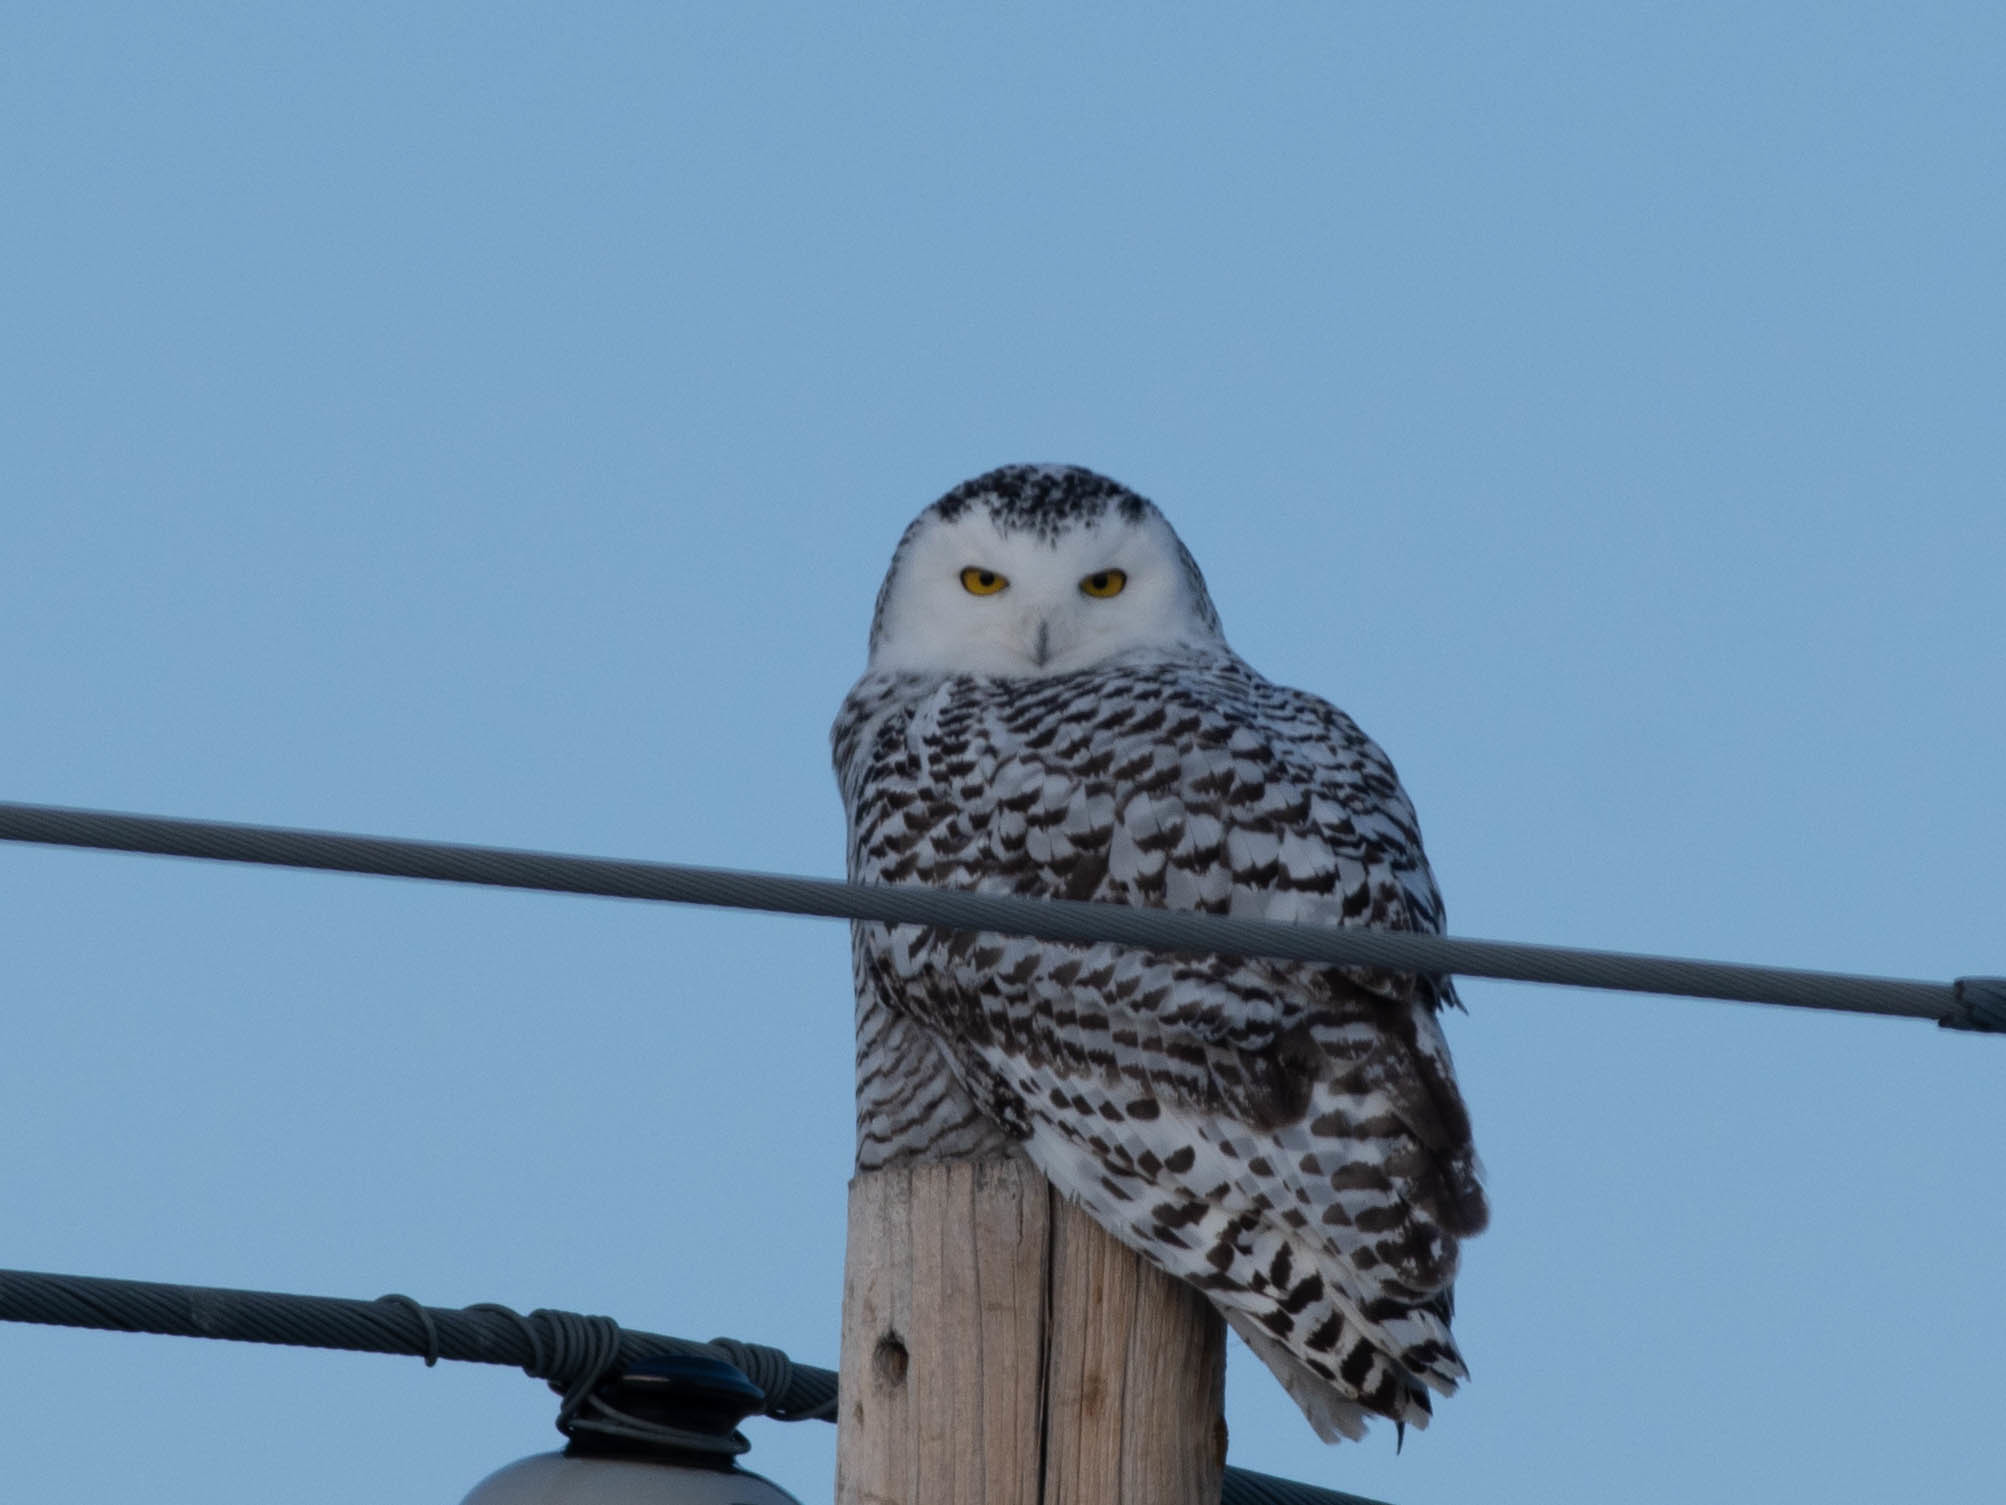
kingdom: Animalia
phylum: Chordata
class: Aves
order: Strigiformes
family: Strigidae
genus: Bubo
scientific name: Bubo scandiacus
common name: Snowy owl
